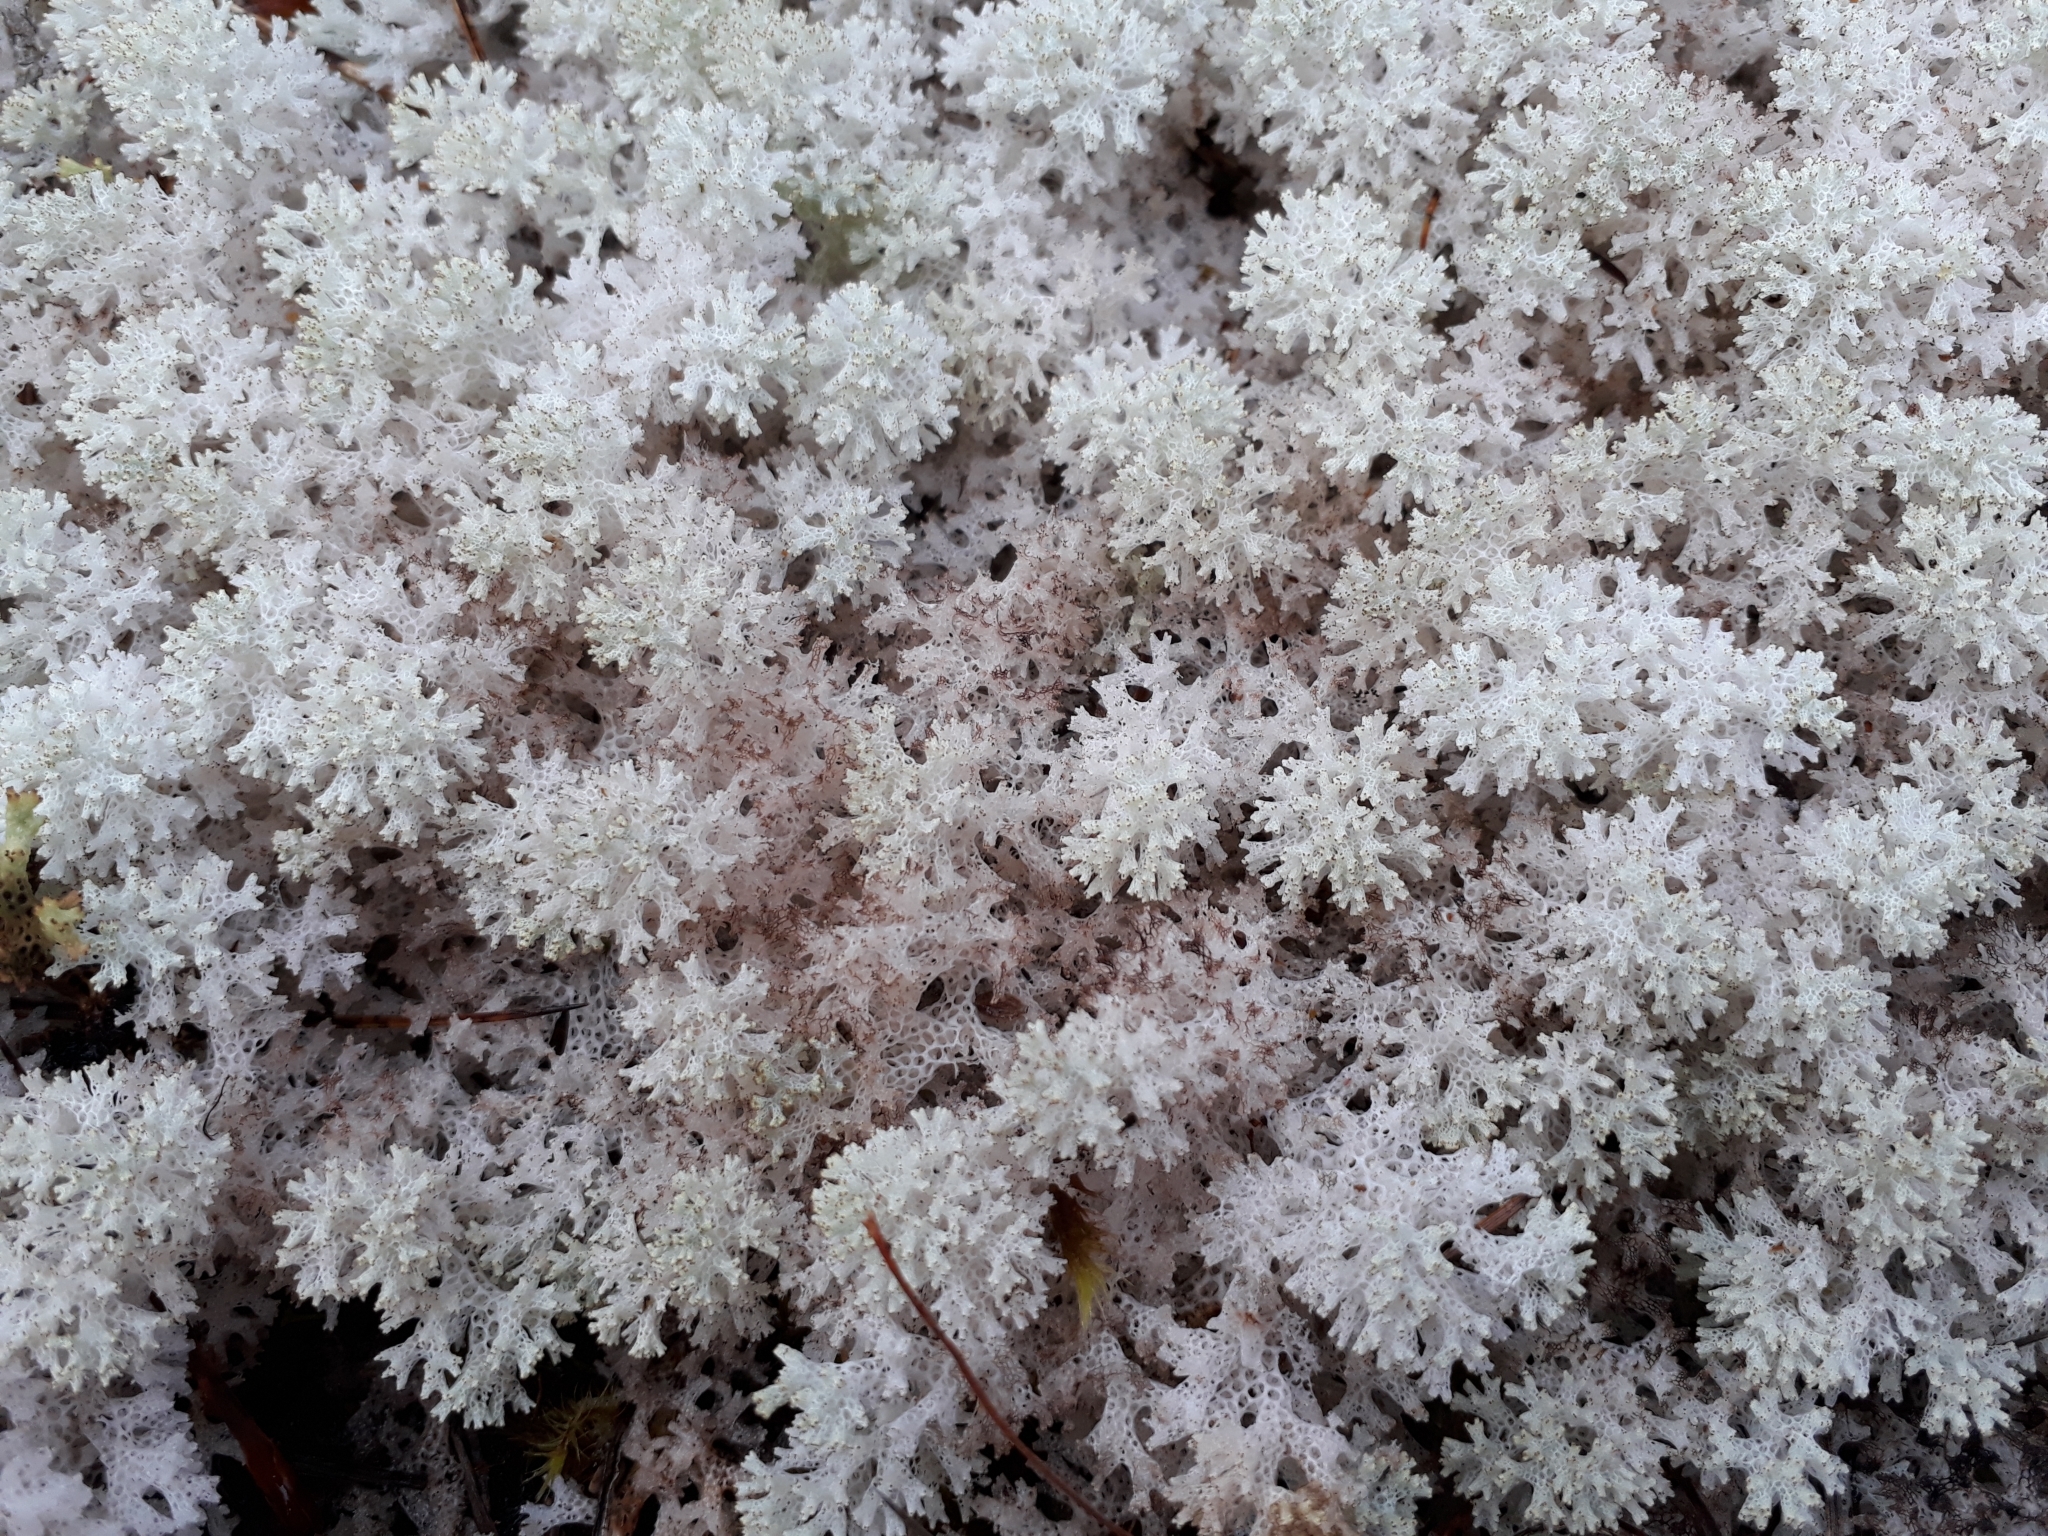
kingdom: Fungi
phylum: Ascomycota
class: Lecanoromycetes
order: Lecanorales
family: Cladoniaceae
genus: Pulchrocladia
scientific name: Pulchrocladia retipora
